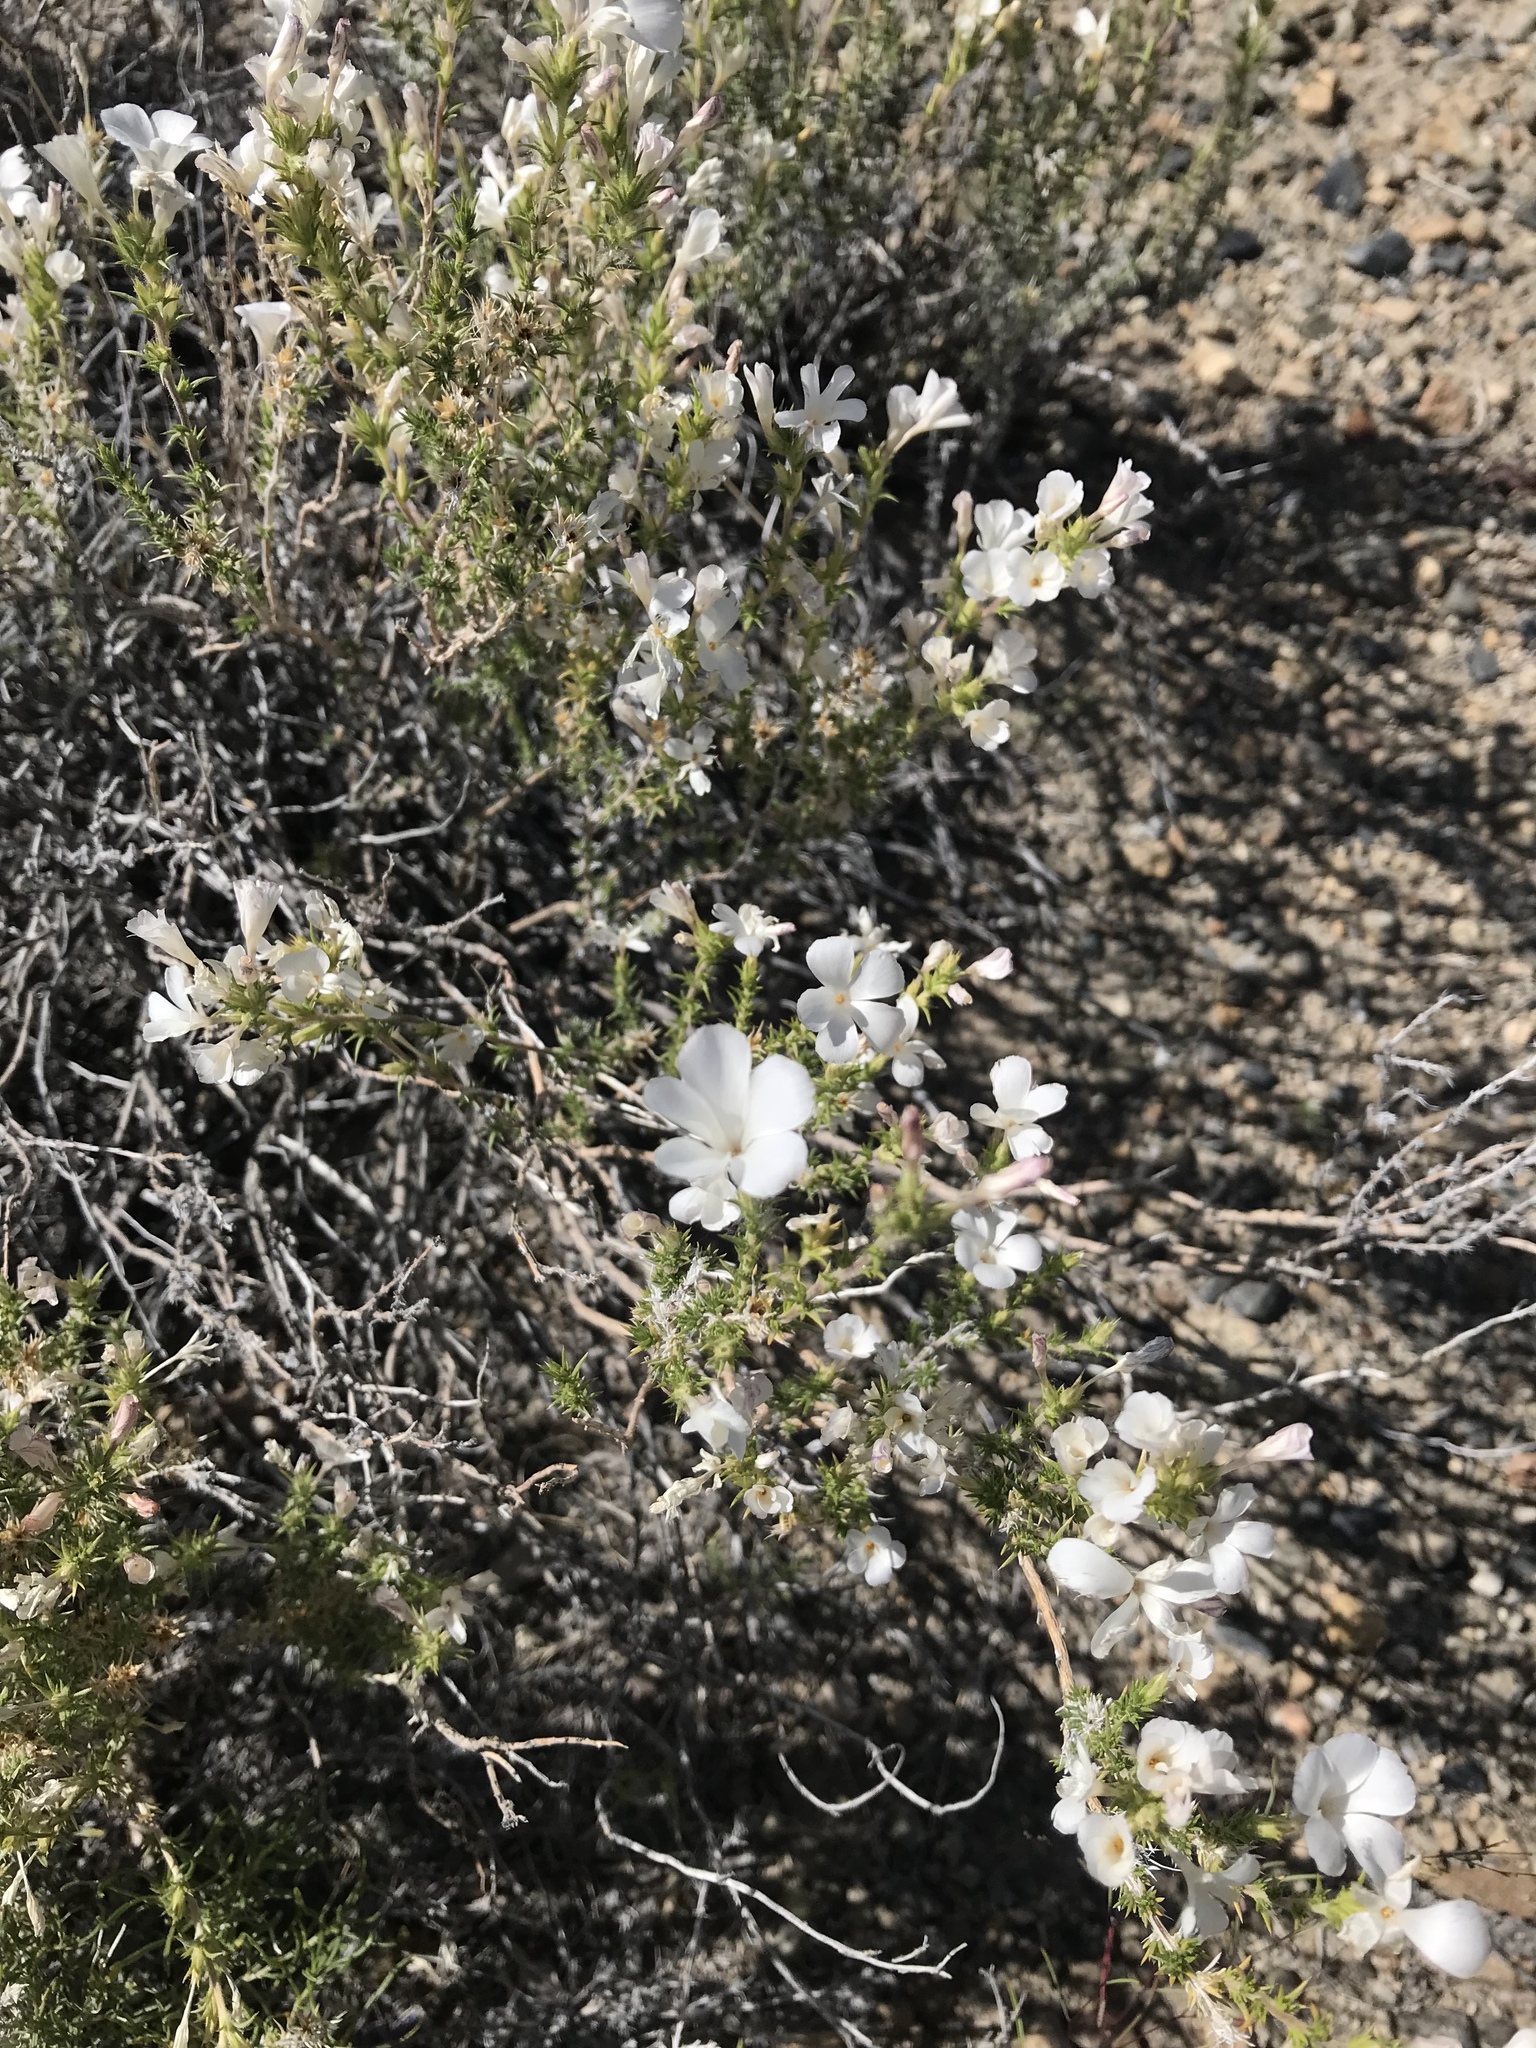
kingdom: Plantae
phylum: Tracheophyta
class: Magnoliopsida
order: Ericales
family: Polemoniaceae
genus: Linanthus
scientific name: Linanthus pungens
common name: Granite prickly phlox
